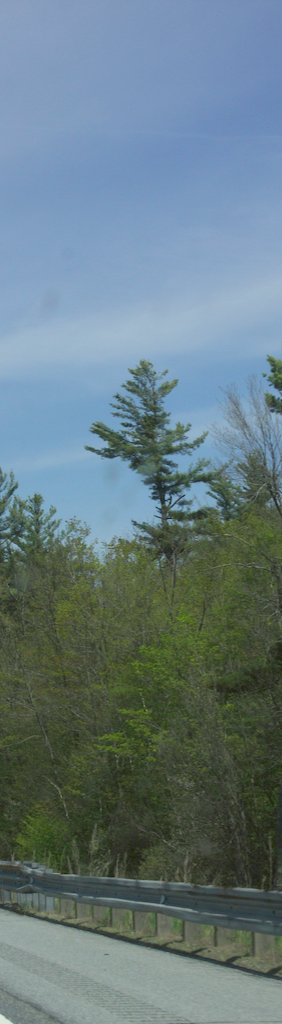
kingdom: Plantae
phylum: Tracheophyta
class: Pinopsida
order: Pinales
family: Pinaceae
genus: Pinus
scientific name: Pinus strobus
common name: Weymouth pine
